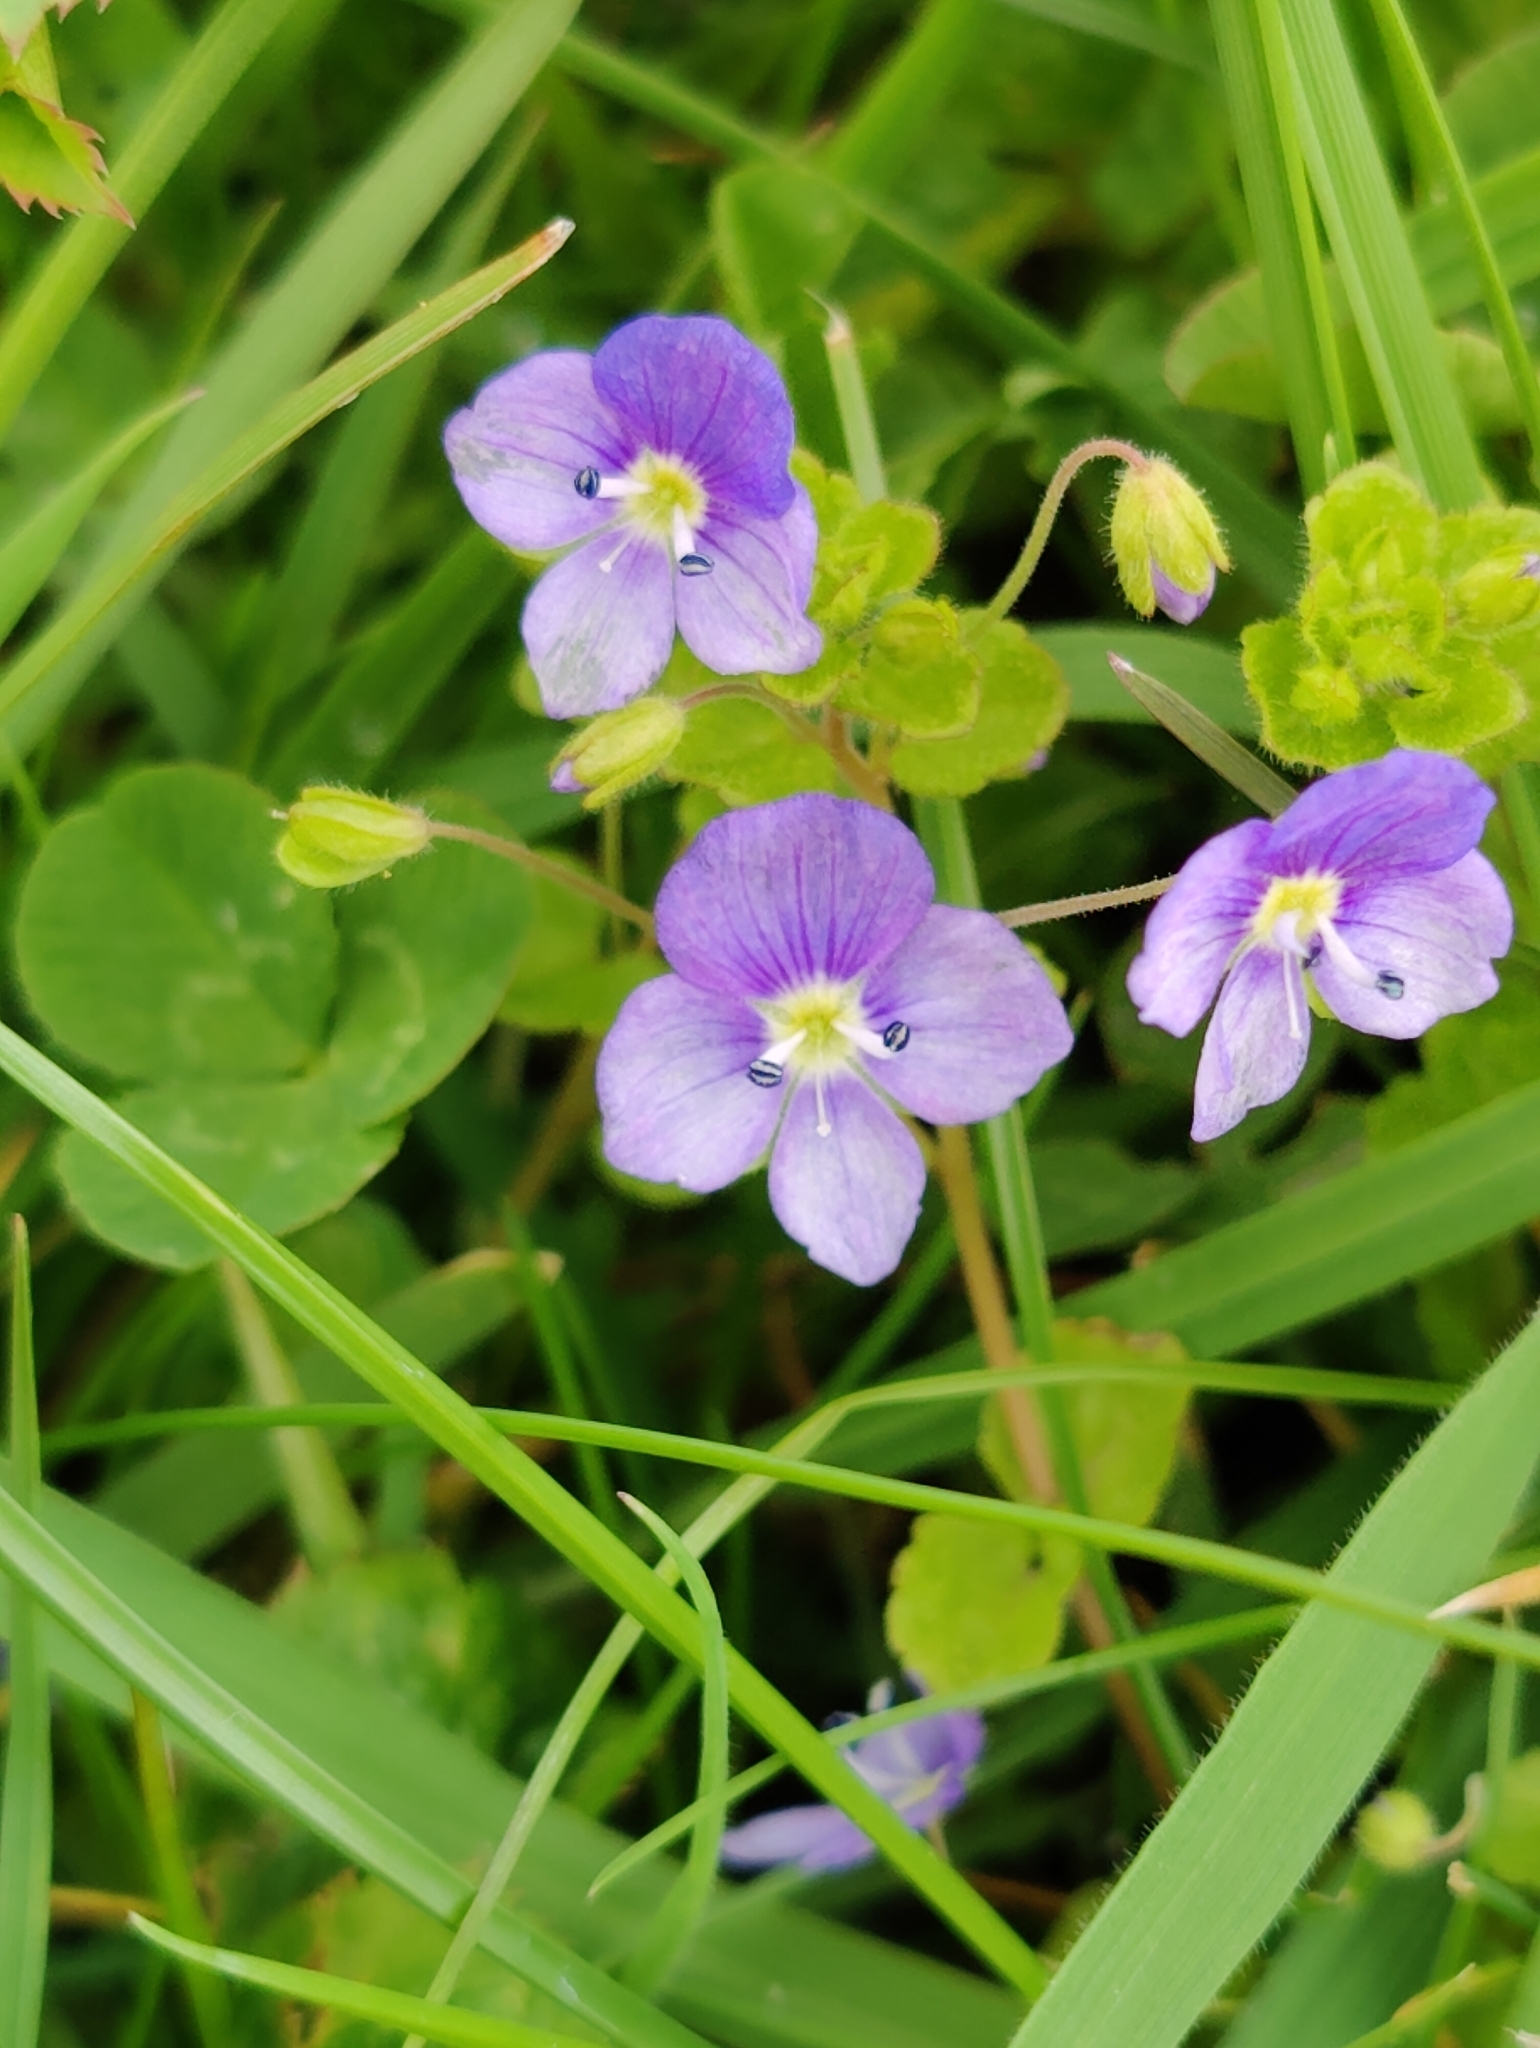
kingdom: Plantae
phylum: Tracheophyta
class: Magnoliopsida
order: Lamiales
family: Plantaginaceae
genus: Veronica
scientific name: Veronica filiformis
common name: Slender speedwell
